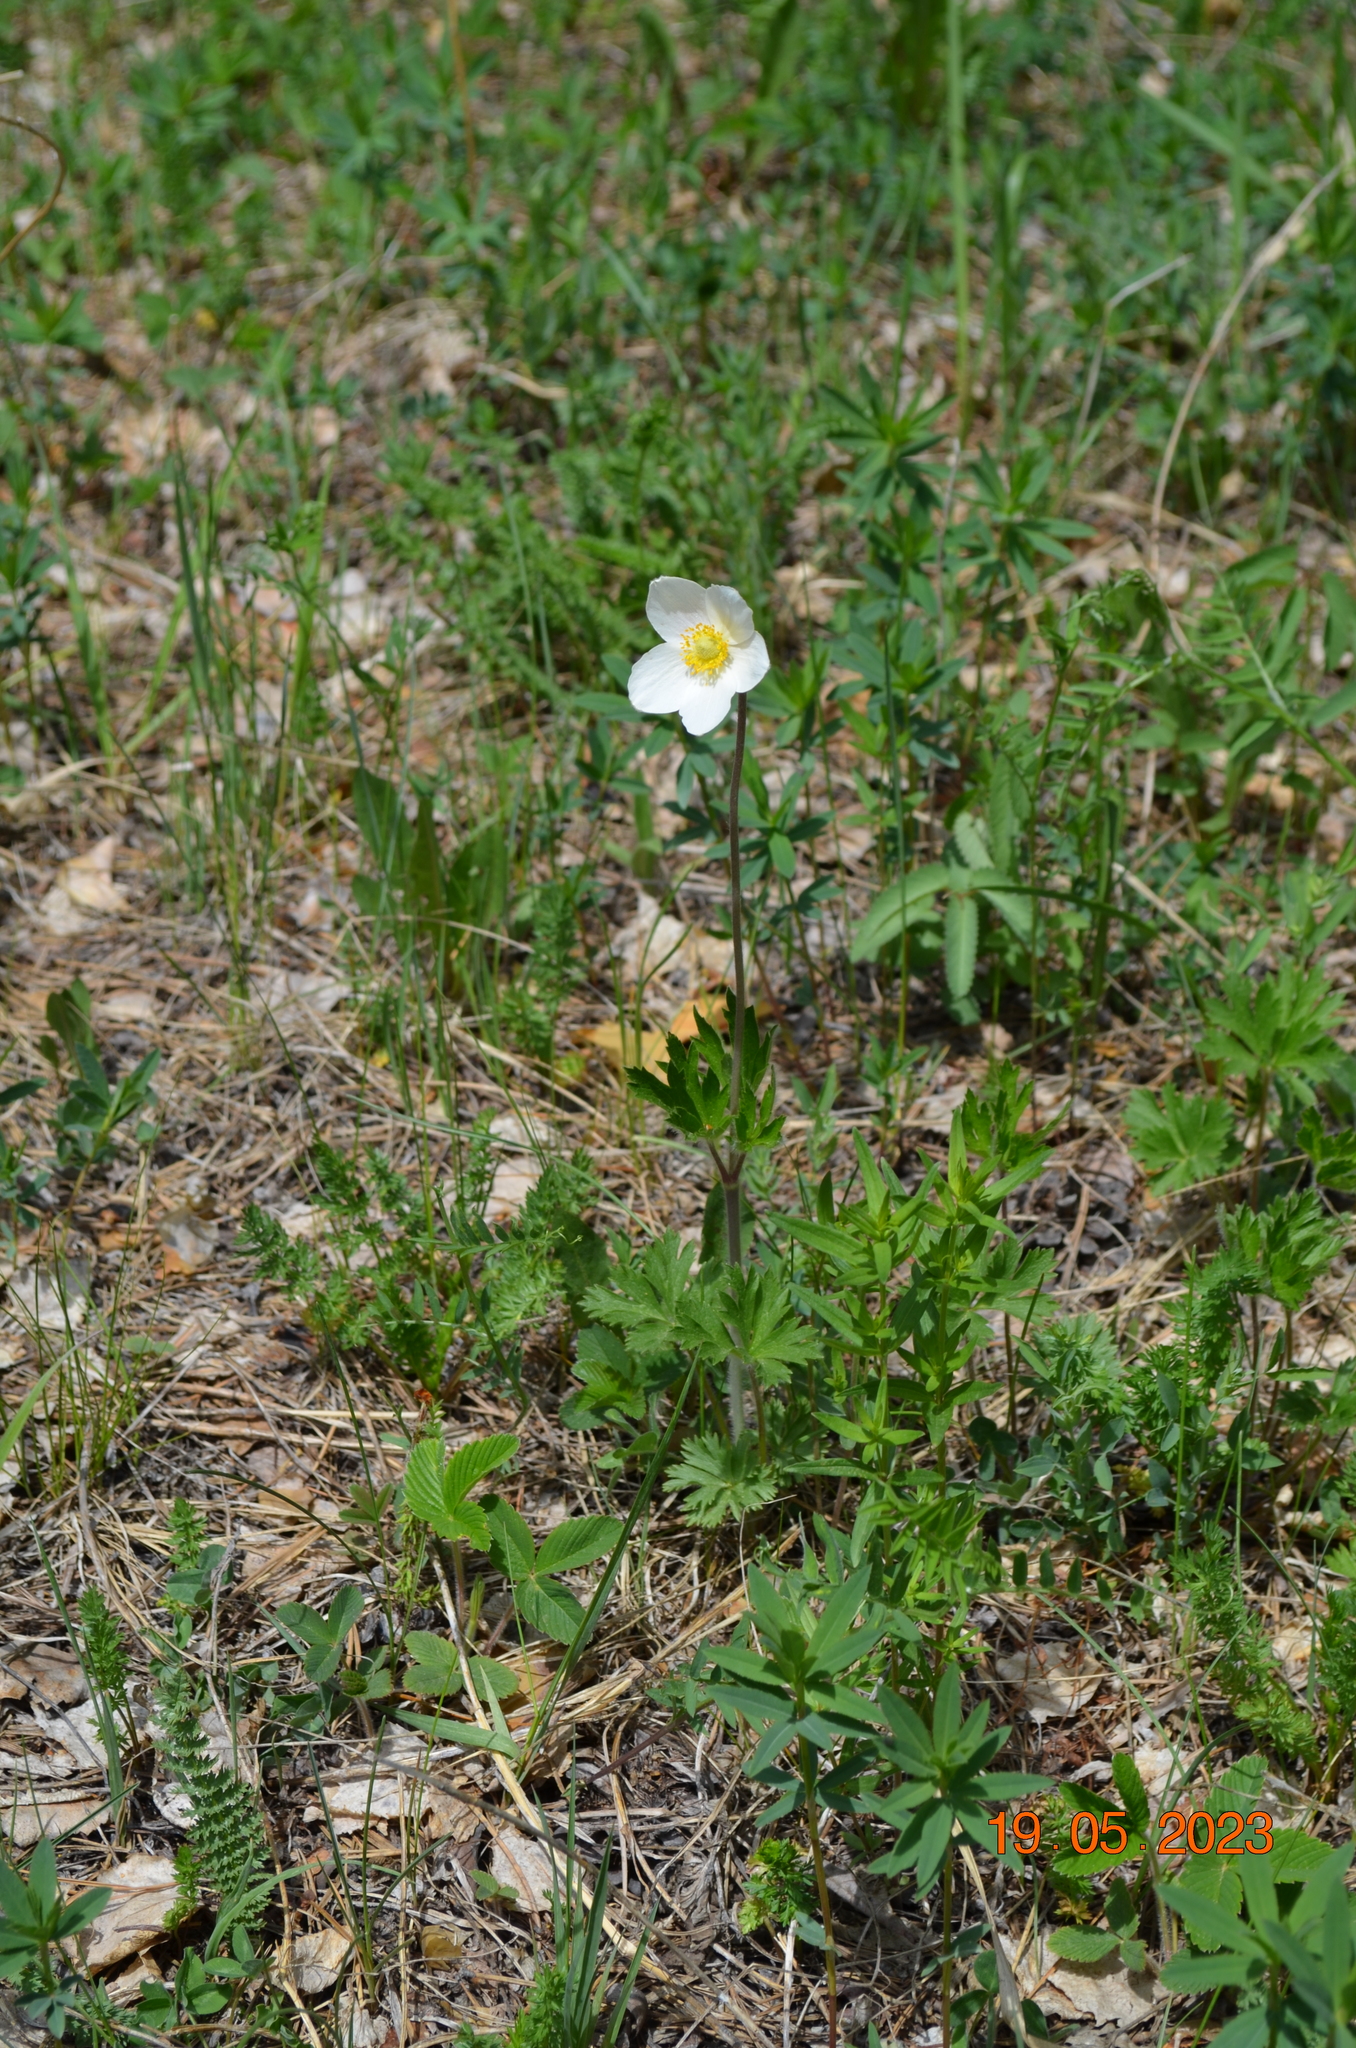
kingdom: Plantae
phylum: Tracheophyta
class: Magnoliopsida
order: Ranunculales
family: Ranunculaceae
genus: Anemone
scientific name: Anemone sylvestris
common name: Snowdrop anemone
